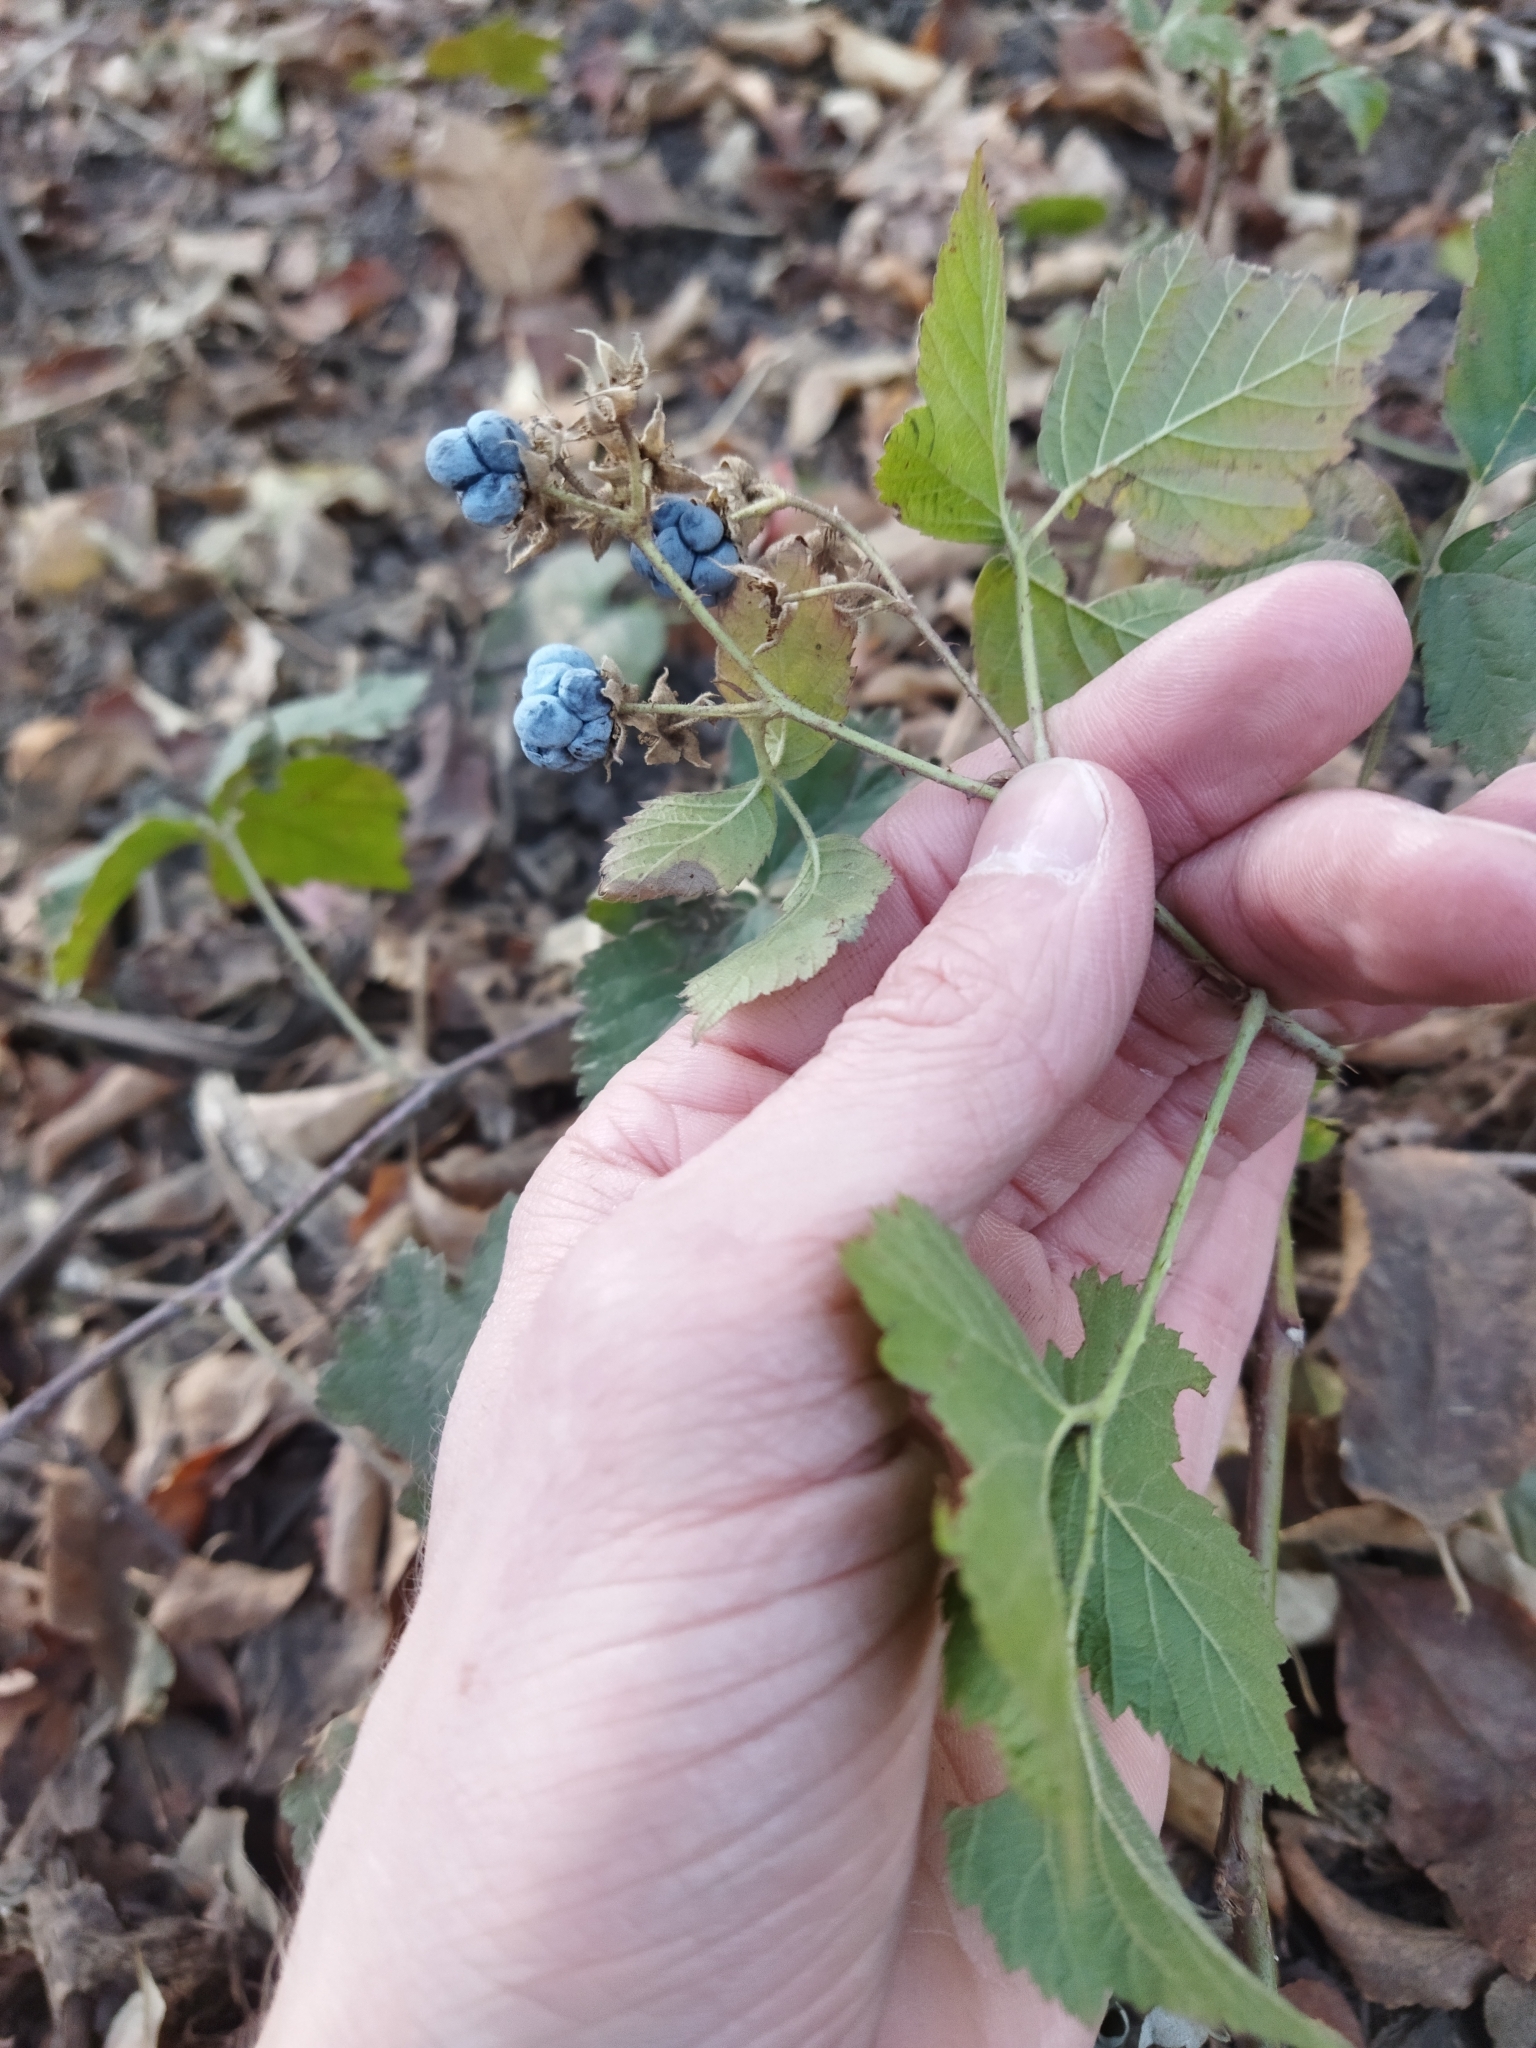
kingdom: Plantae
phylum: Tracheophyta
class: Magnoliopsida
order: Rosales
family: Rosaceae
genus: Rubus
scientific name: Rubus caesius
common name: Dewberry
